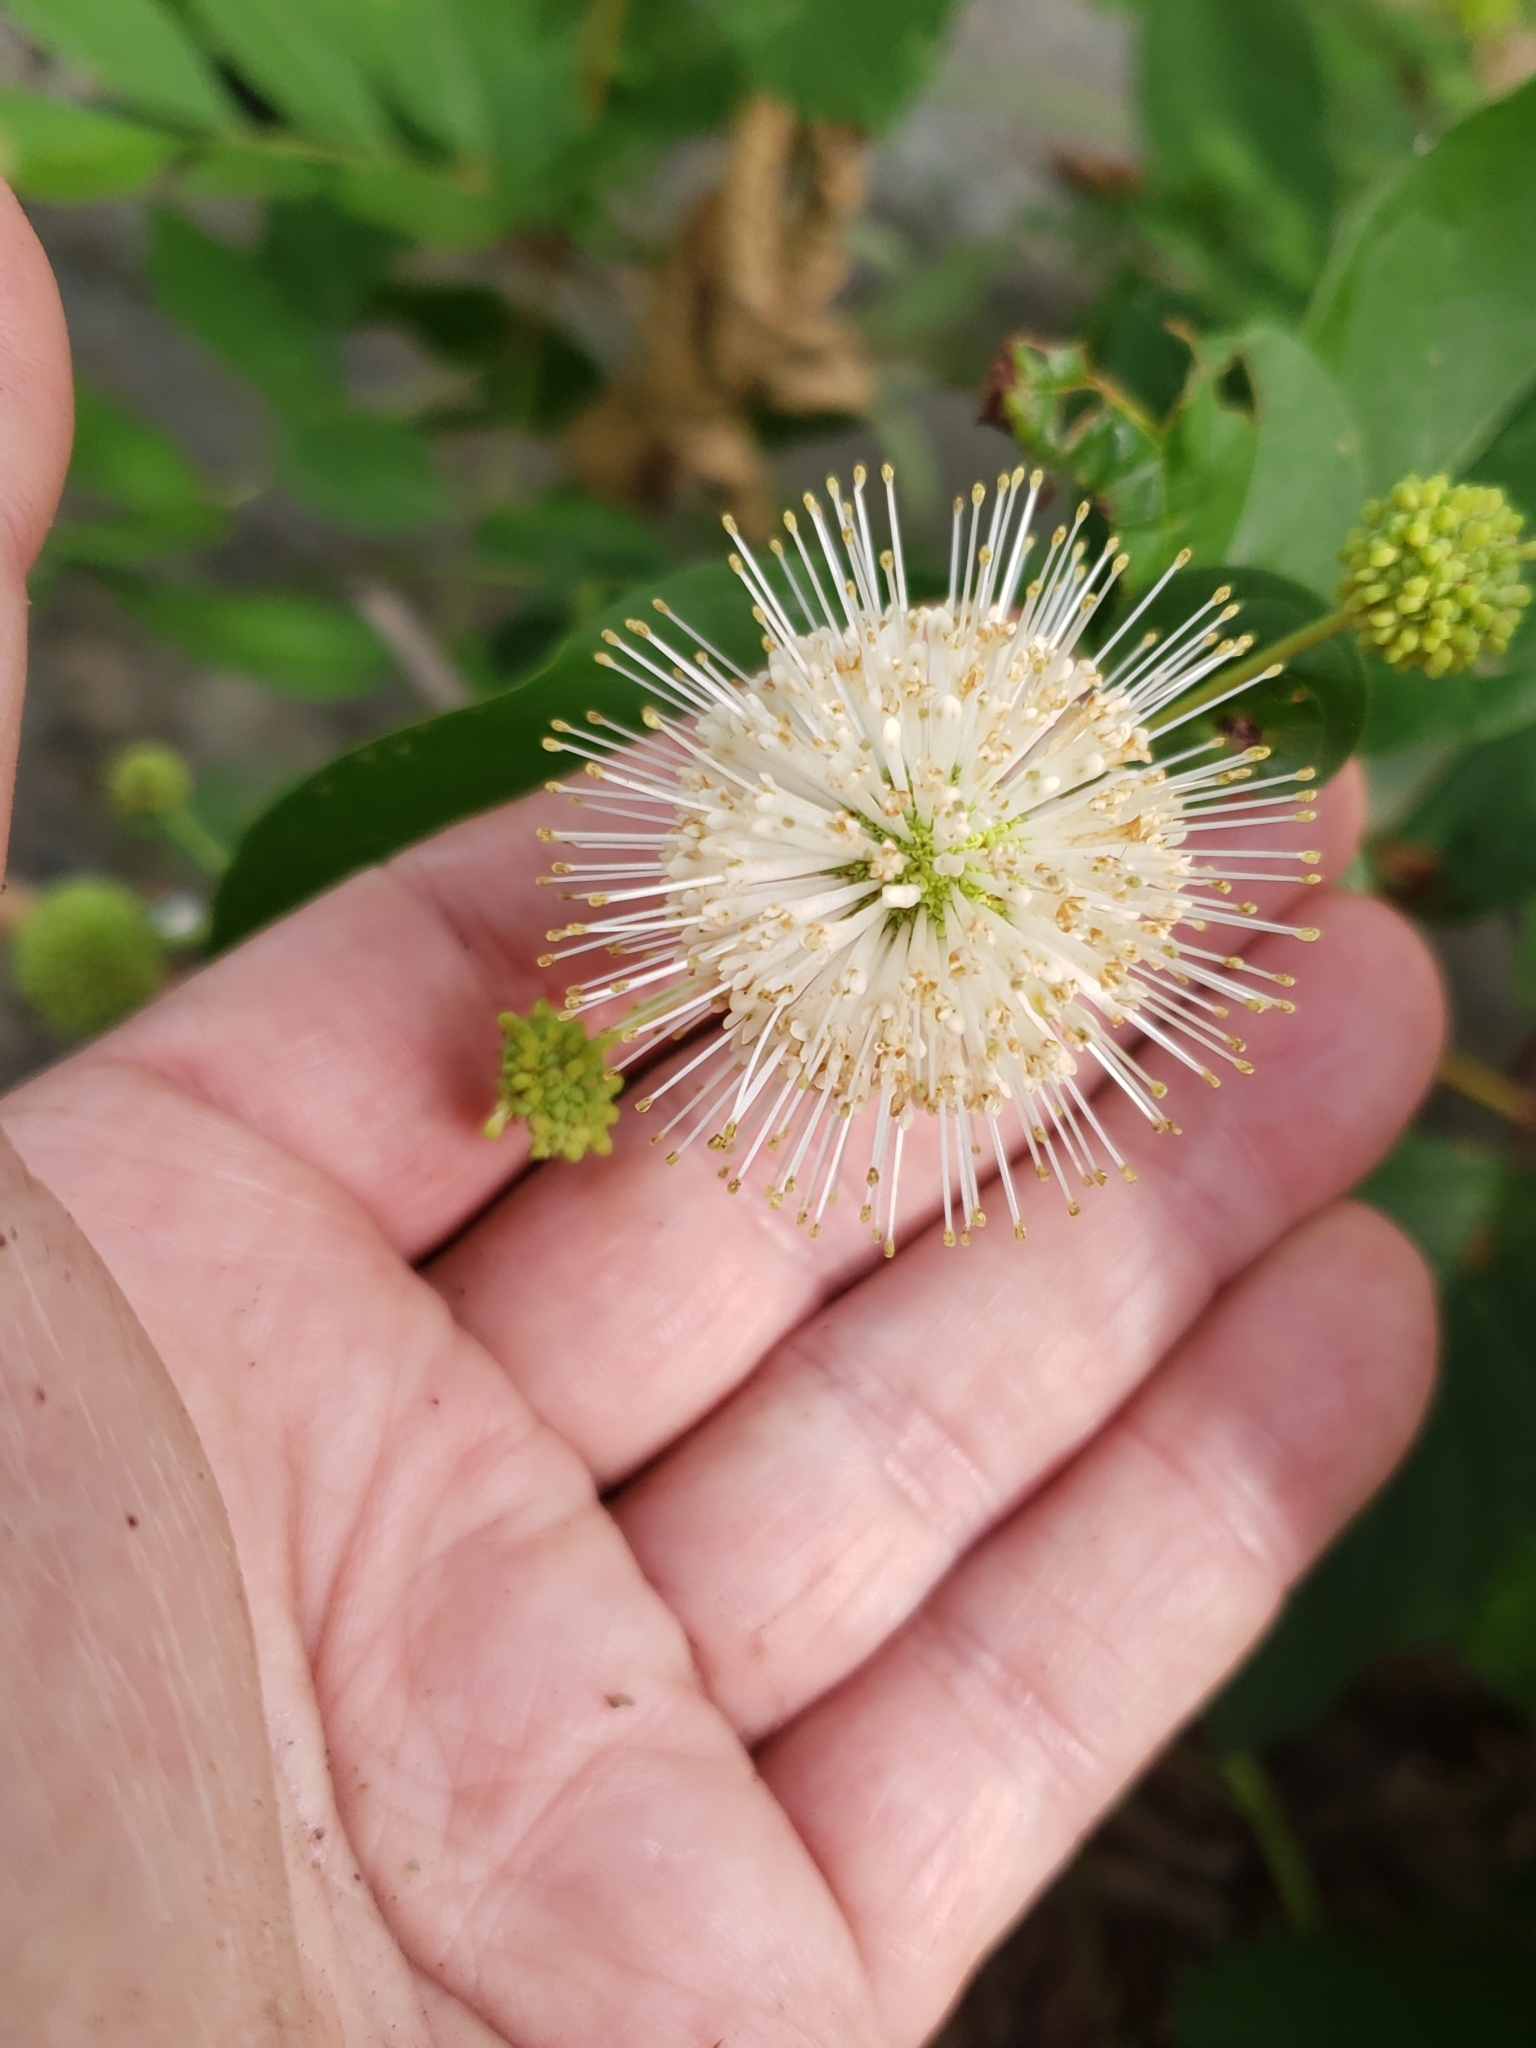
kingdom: Plantae
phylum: Tracheophyta
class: Magnoliopsida
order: Gentianales
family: Rubiaceae
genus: Cephalanthus
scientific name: Cephalanthus occidentalis
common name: Button-willow
